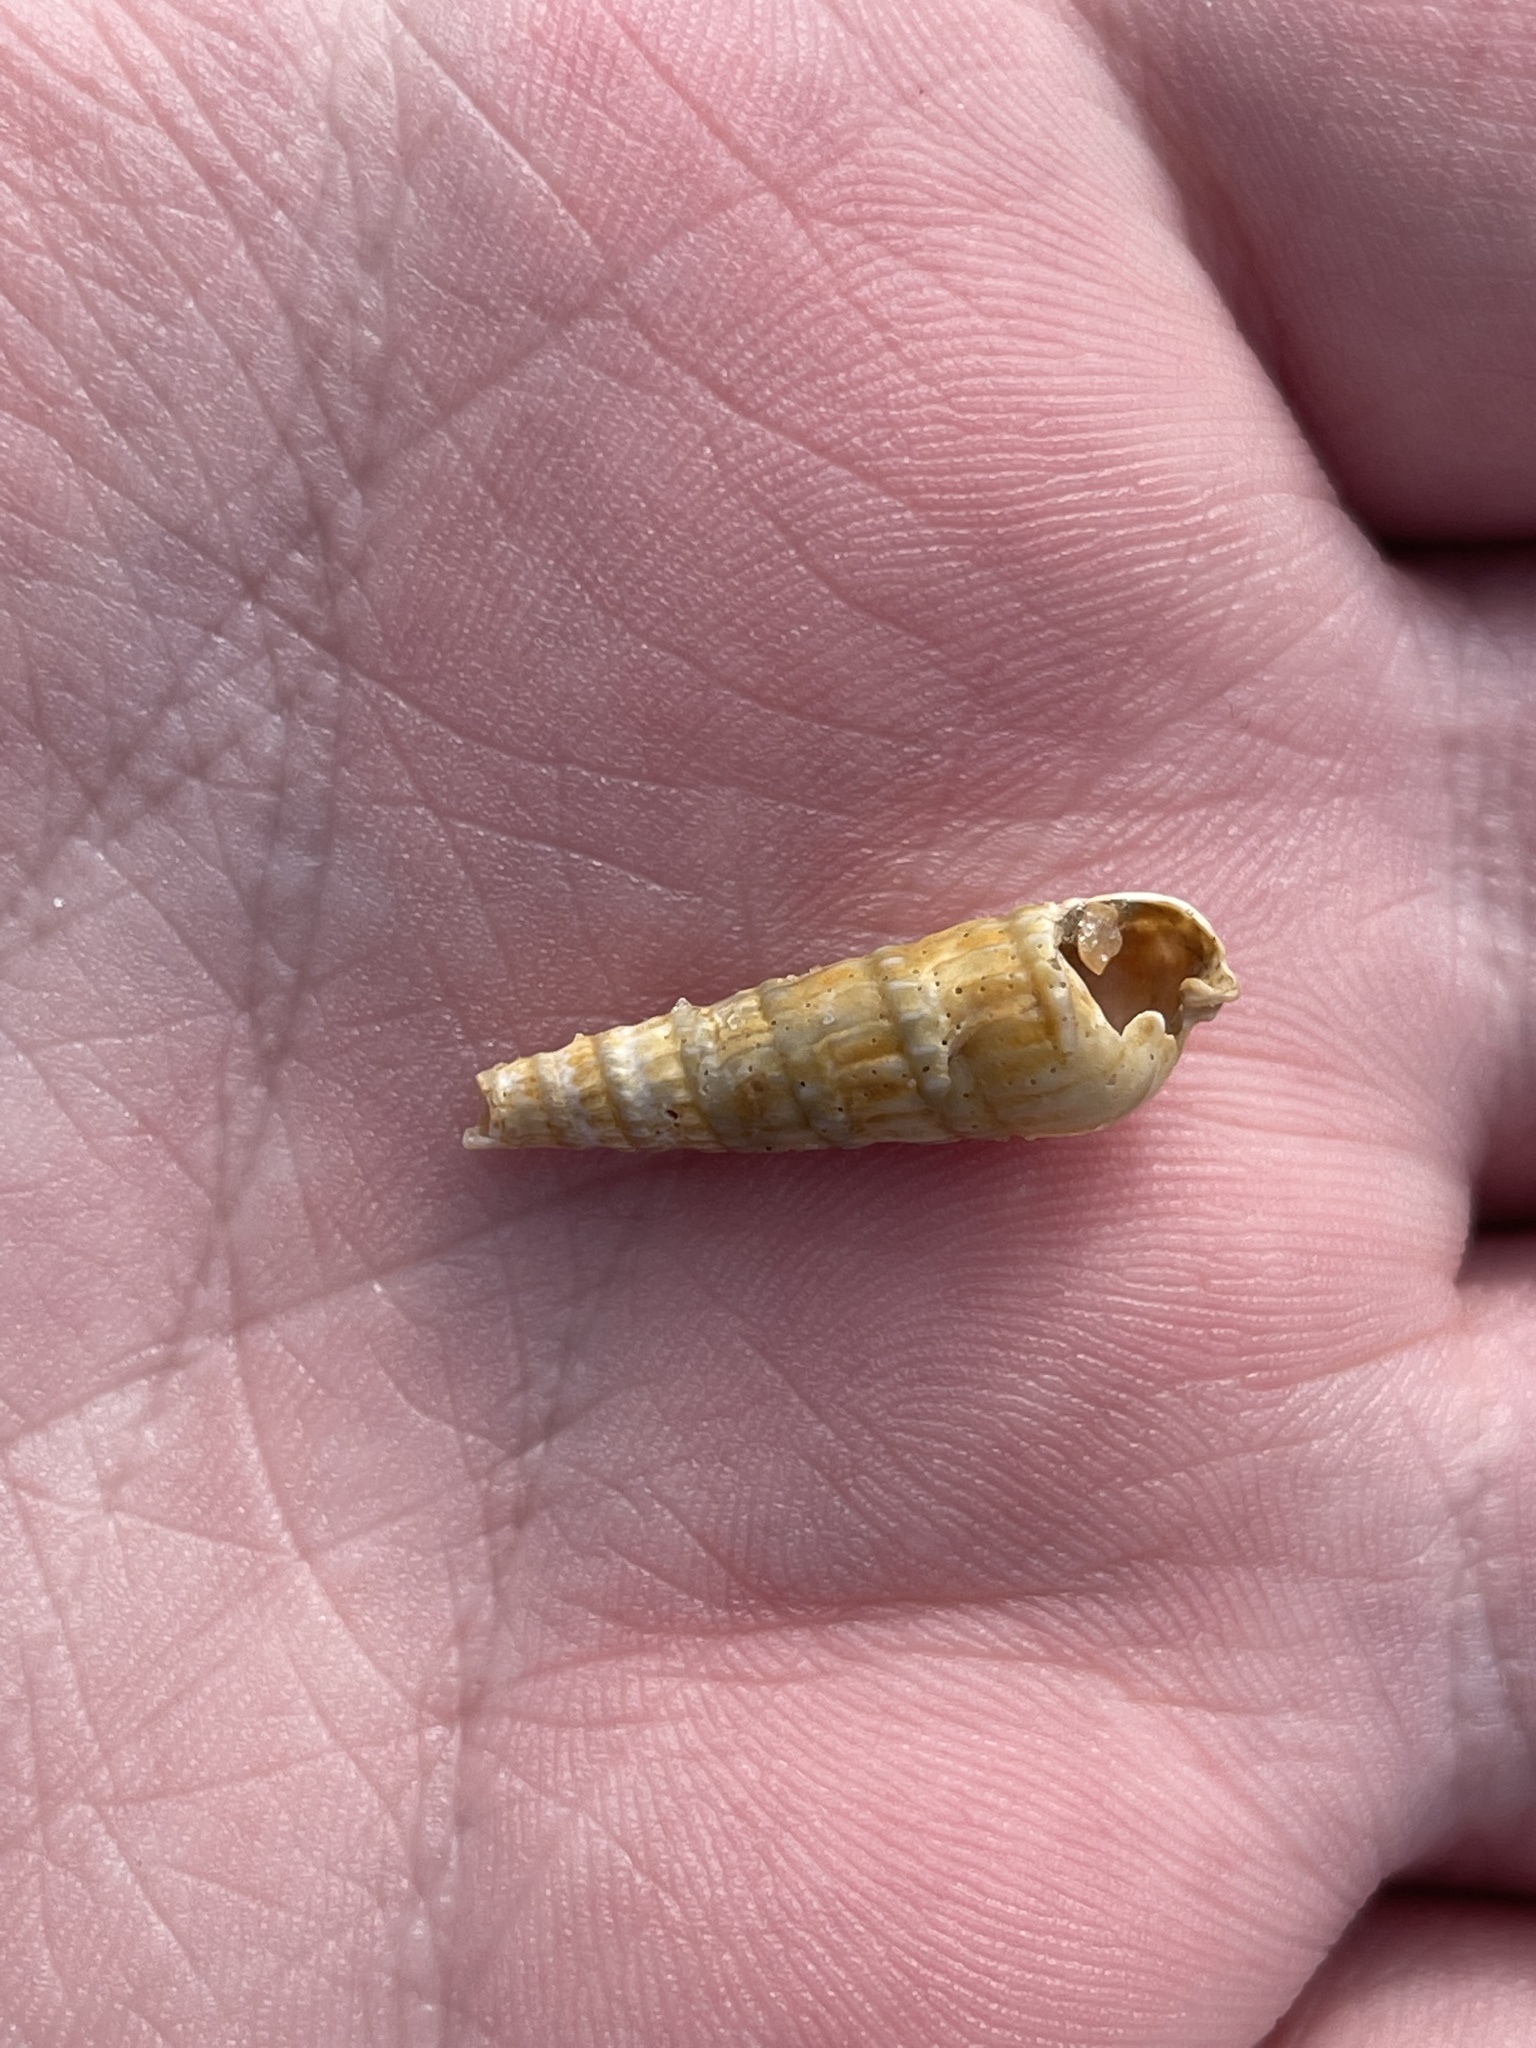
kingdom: Animalia
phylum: Mollusca
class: Gastropoda
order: Neogastropoda
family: Terebridae
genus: Neoterebra
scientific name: Neoterebra dislocata
